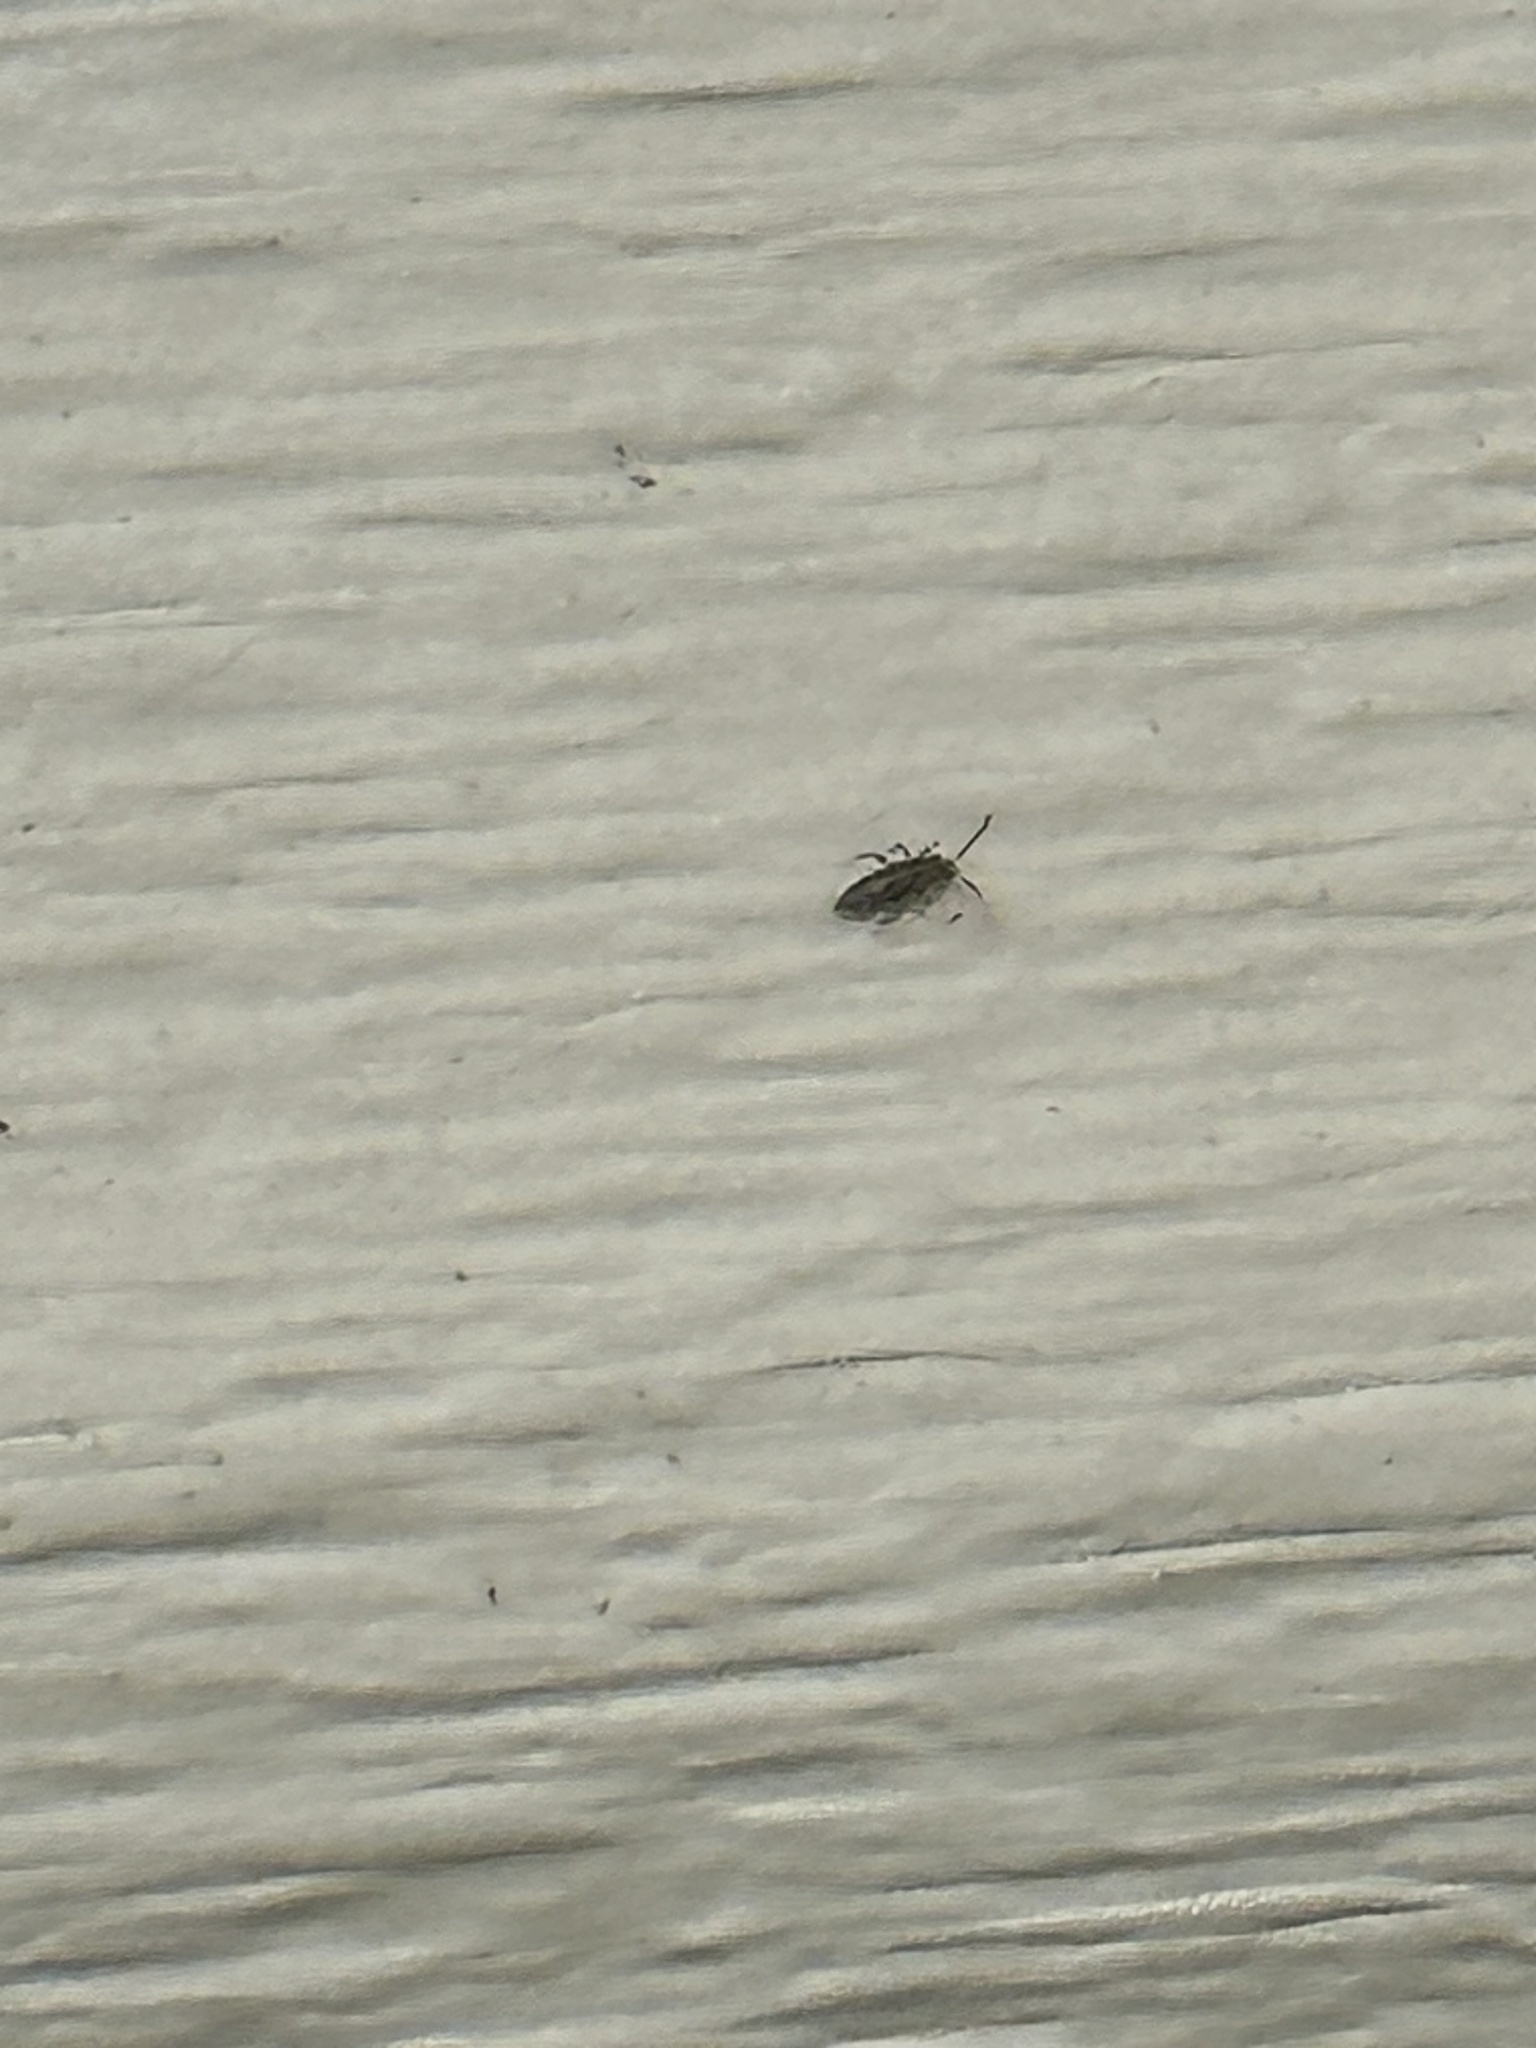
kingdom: Animalia
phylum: Arthropoda
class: Collembola
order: Entomobryomorpha
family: Entomobryidae
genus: Willowsia
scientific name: Willowsia nigromaculata
